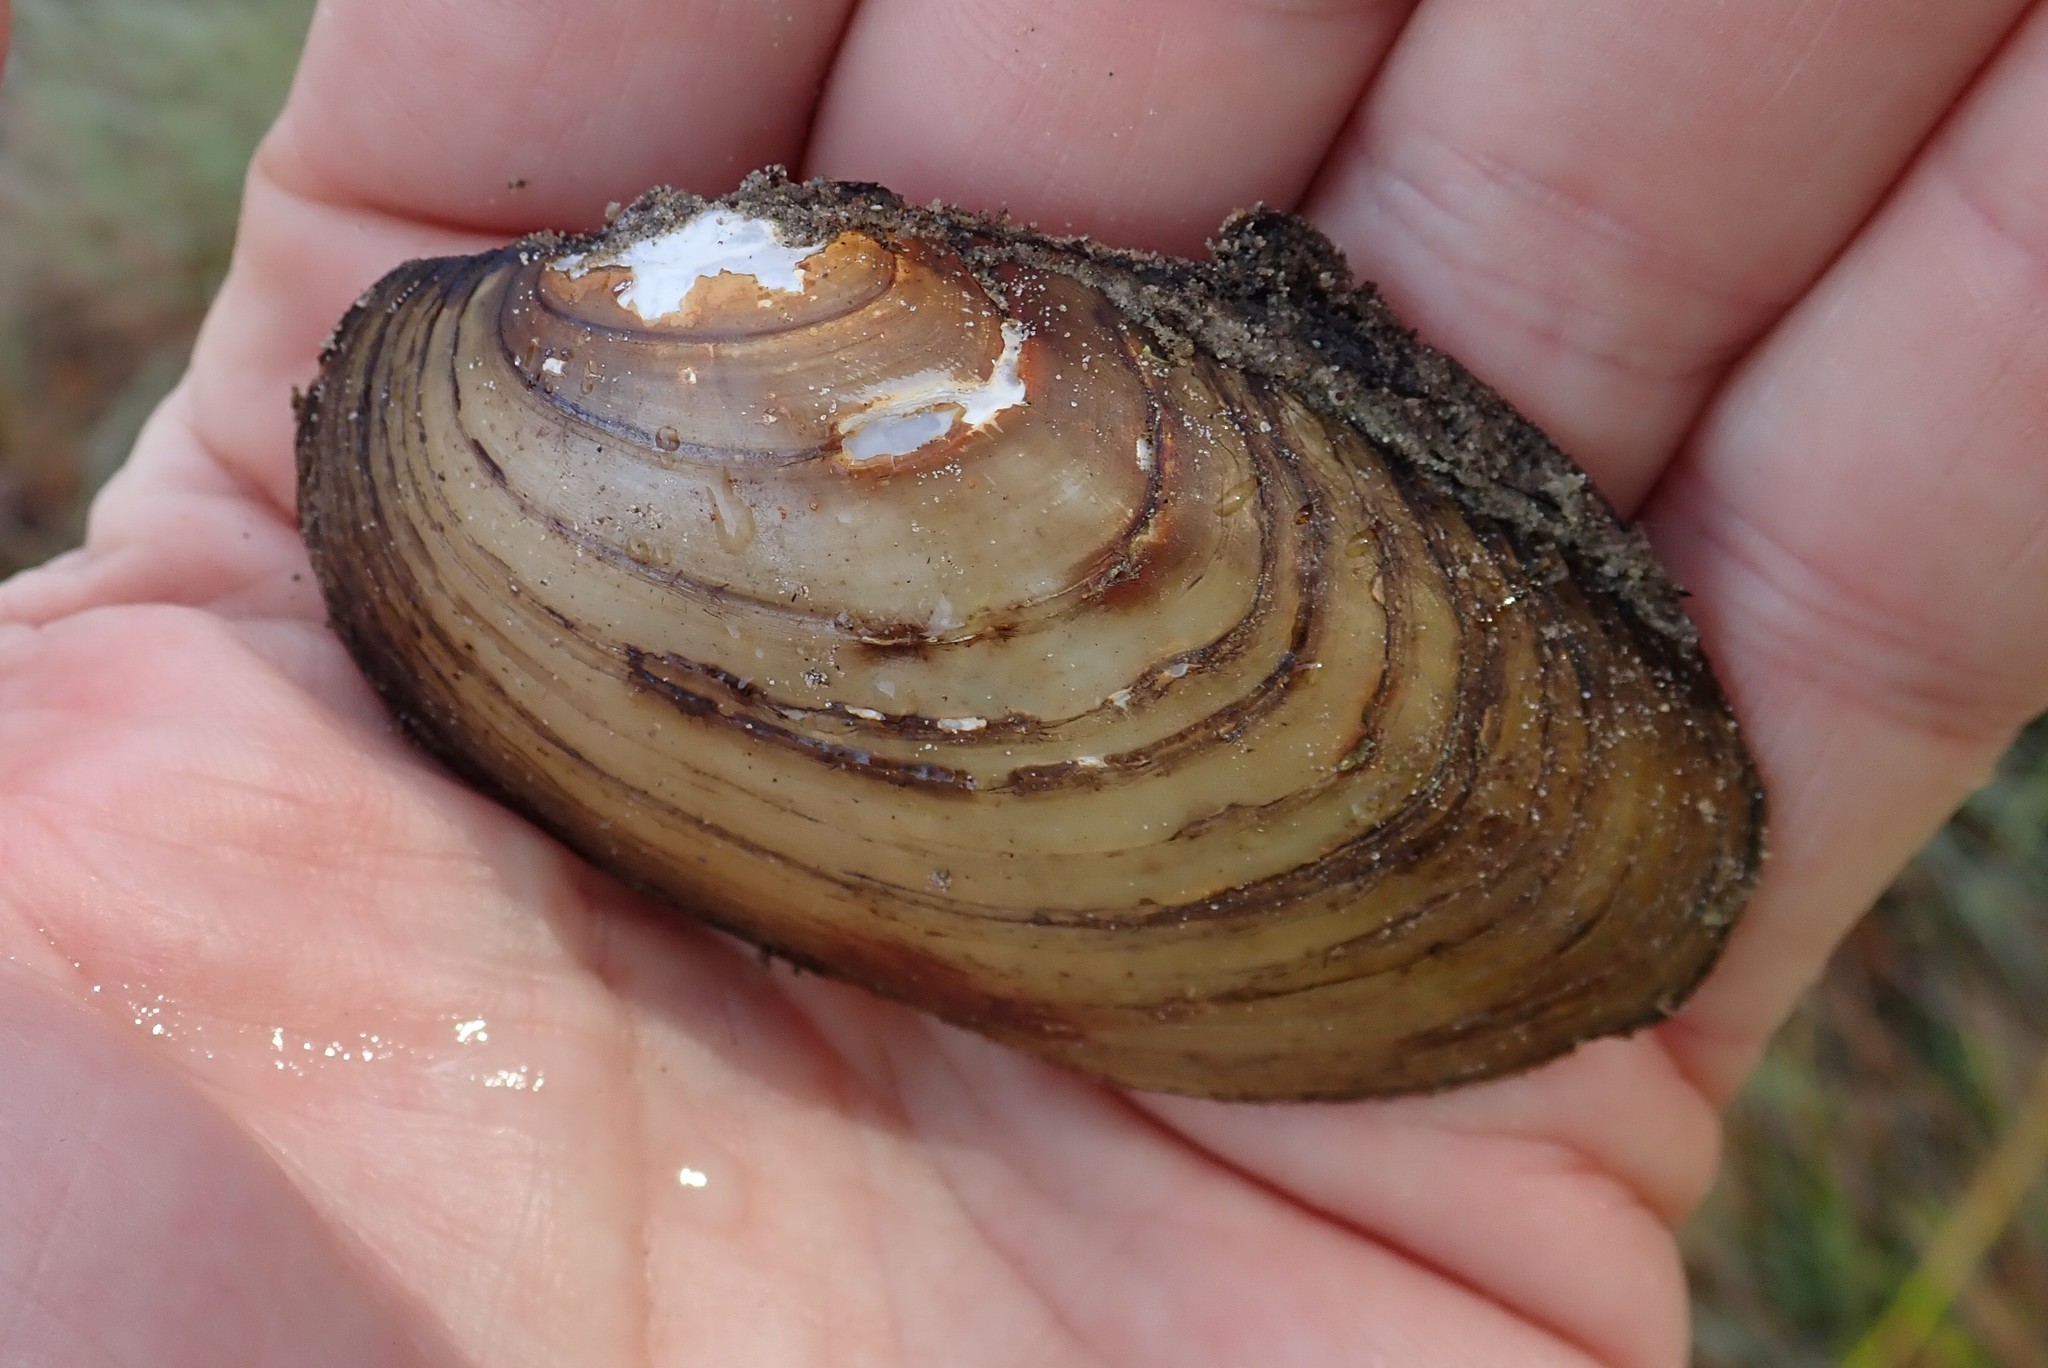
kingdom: Animalia
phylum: Mollusca
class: Bivalvia
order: Unionida
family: Unionidae
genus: Lampsilis
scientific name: Lampsilis siliquoidea
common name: Fatmucket
